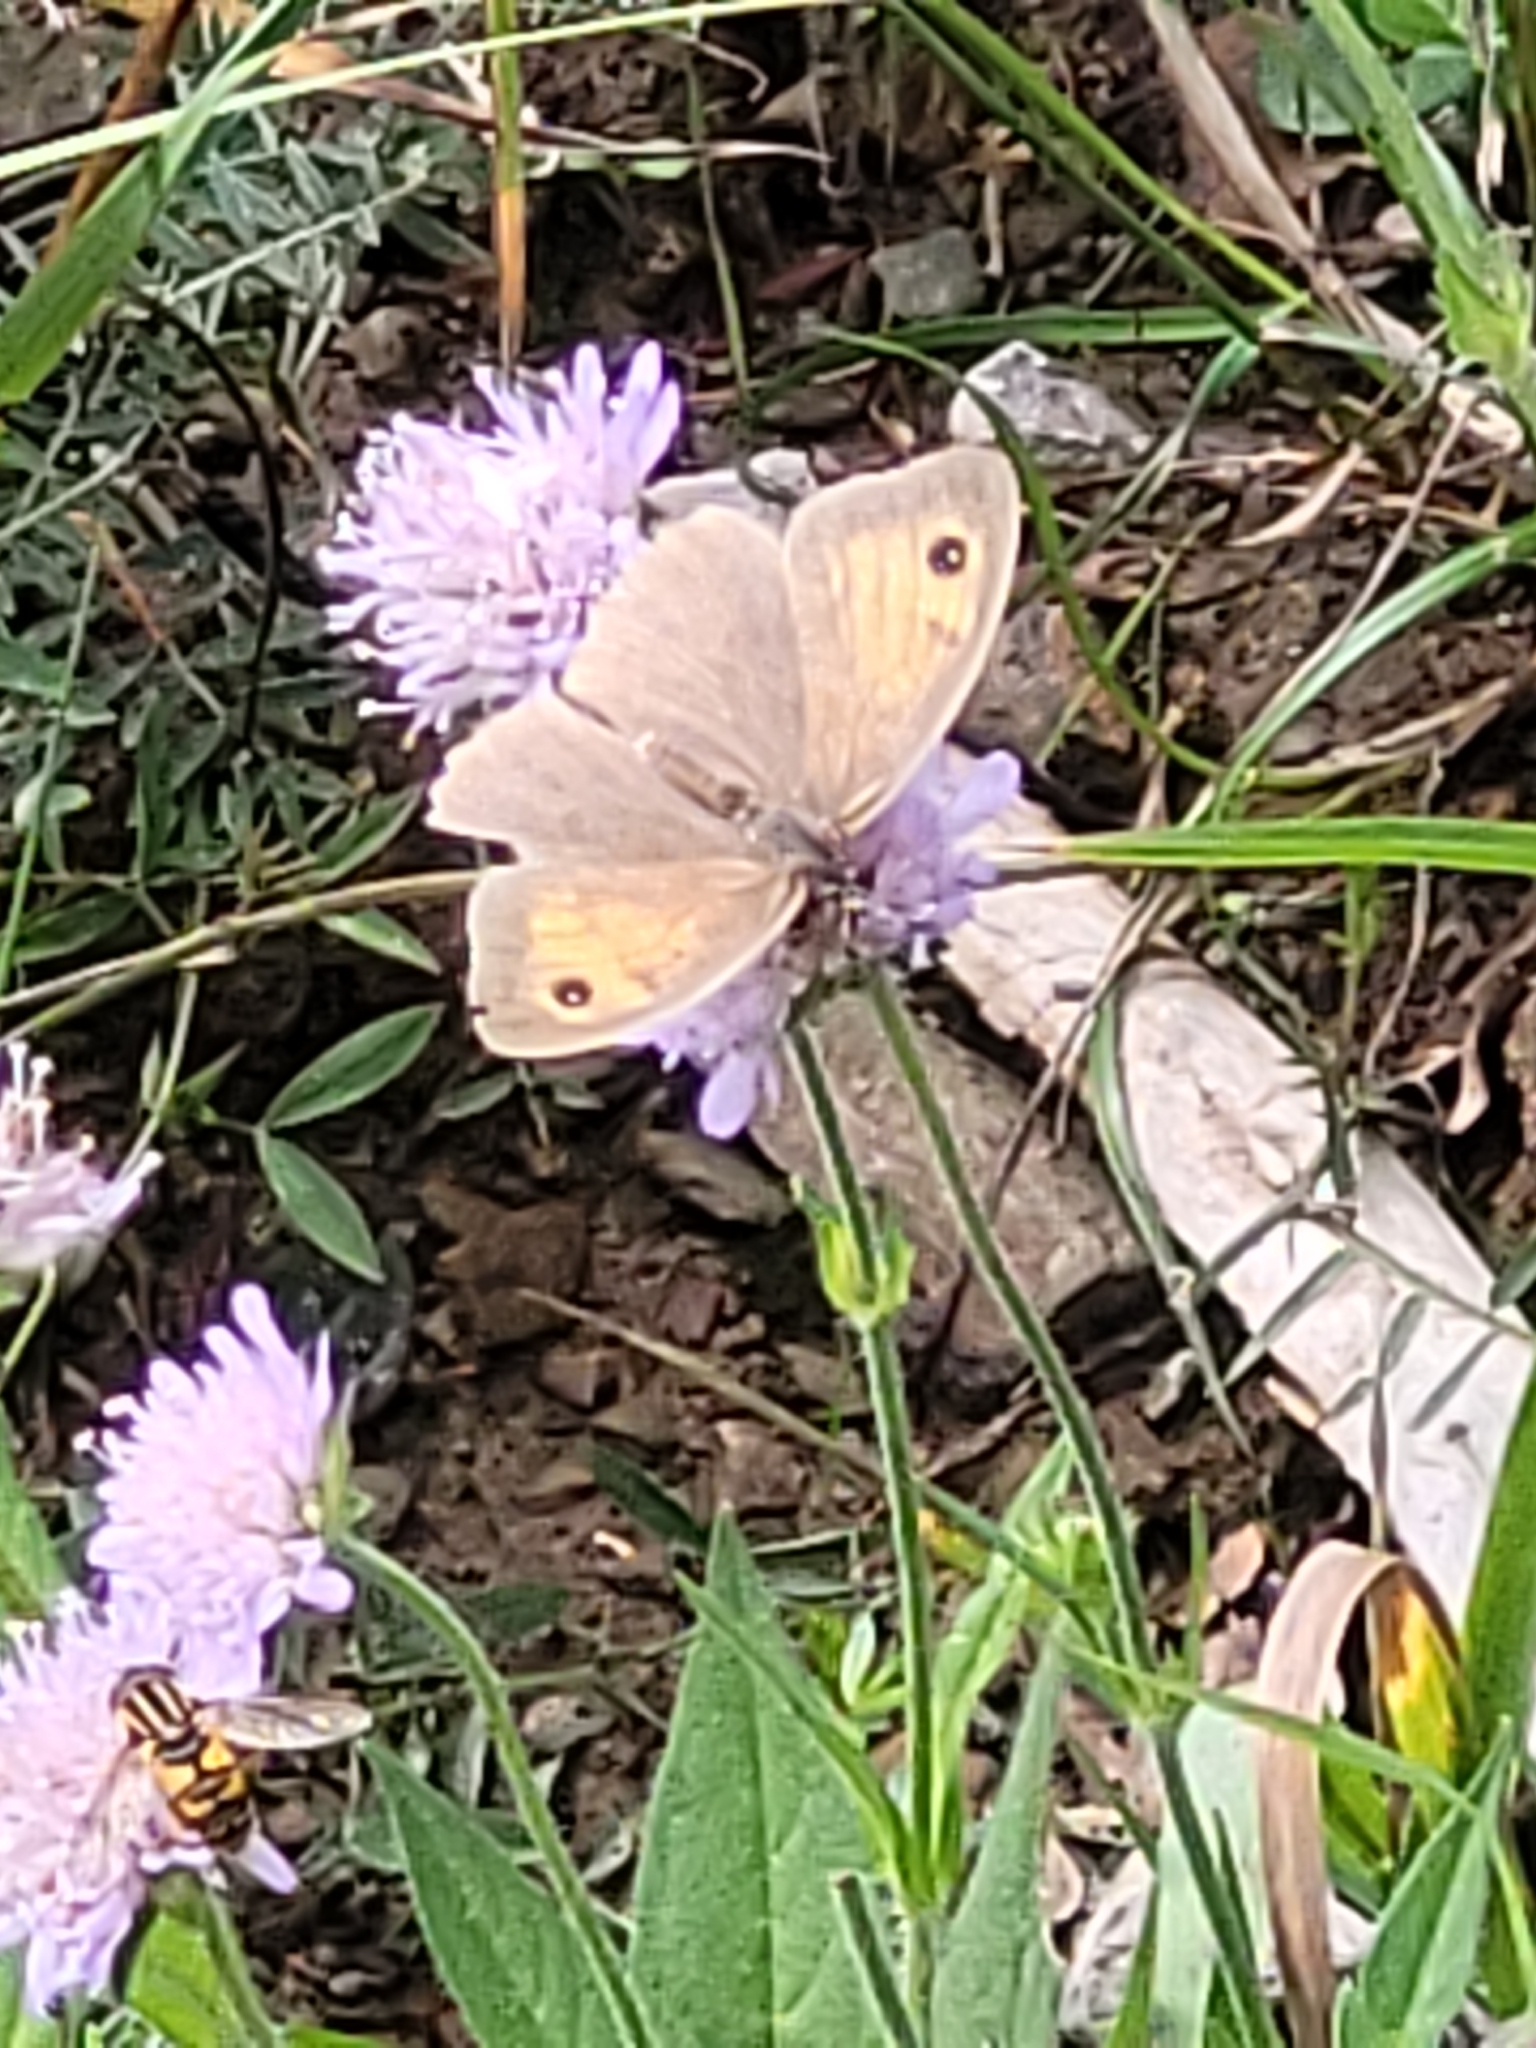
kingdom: Animalia
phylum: Arthropoda
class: Insecta
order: Lepidoptera
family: Nymphalidae
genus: Maniola
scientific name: Maniola jurtina
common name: Meadow brown
